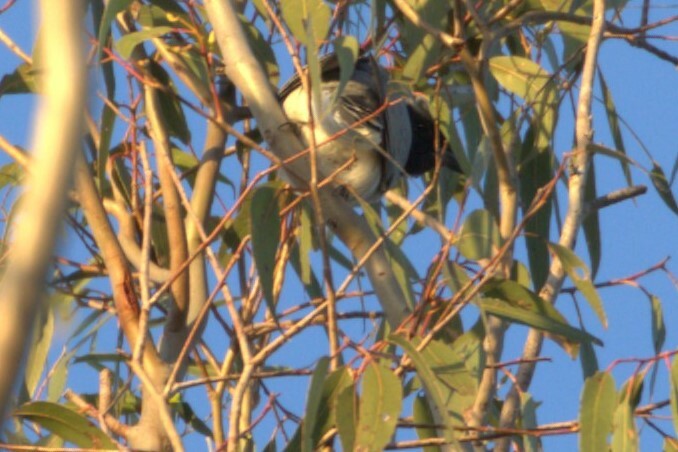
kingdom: Animalia
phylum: Chordata
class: Aves
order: Passeriformes
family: Campephagidae
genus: Coracina
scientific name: Coracina novaehollandiae
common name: Black-faced cuckooshrike
